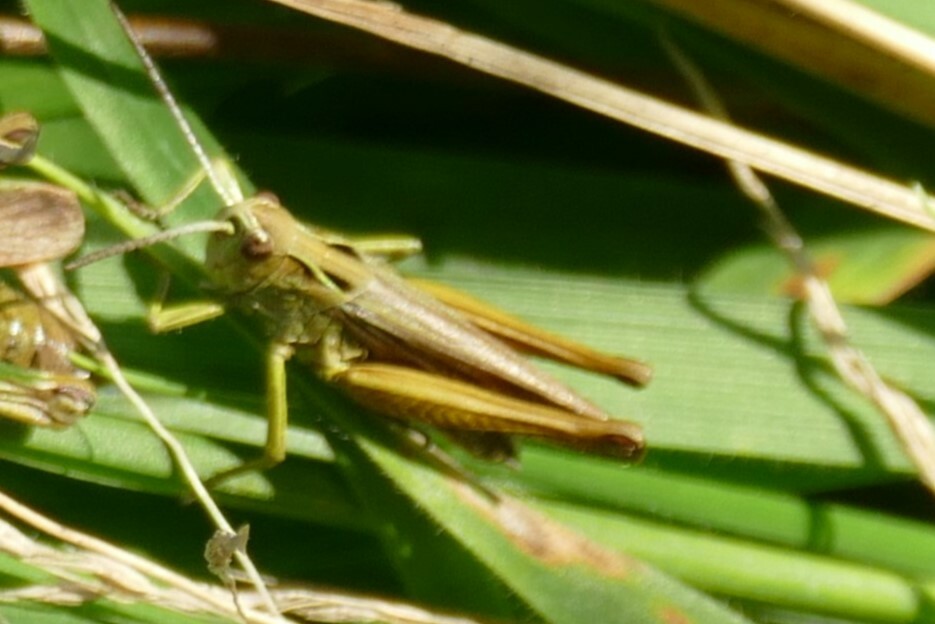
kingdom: Animalia
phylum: Arthropoda
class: Insecta
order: Orthoptera
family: Acrididae
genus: Omocestus
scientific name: Omocestus viridulus
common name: Common green grasshopper
